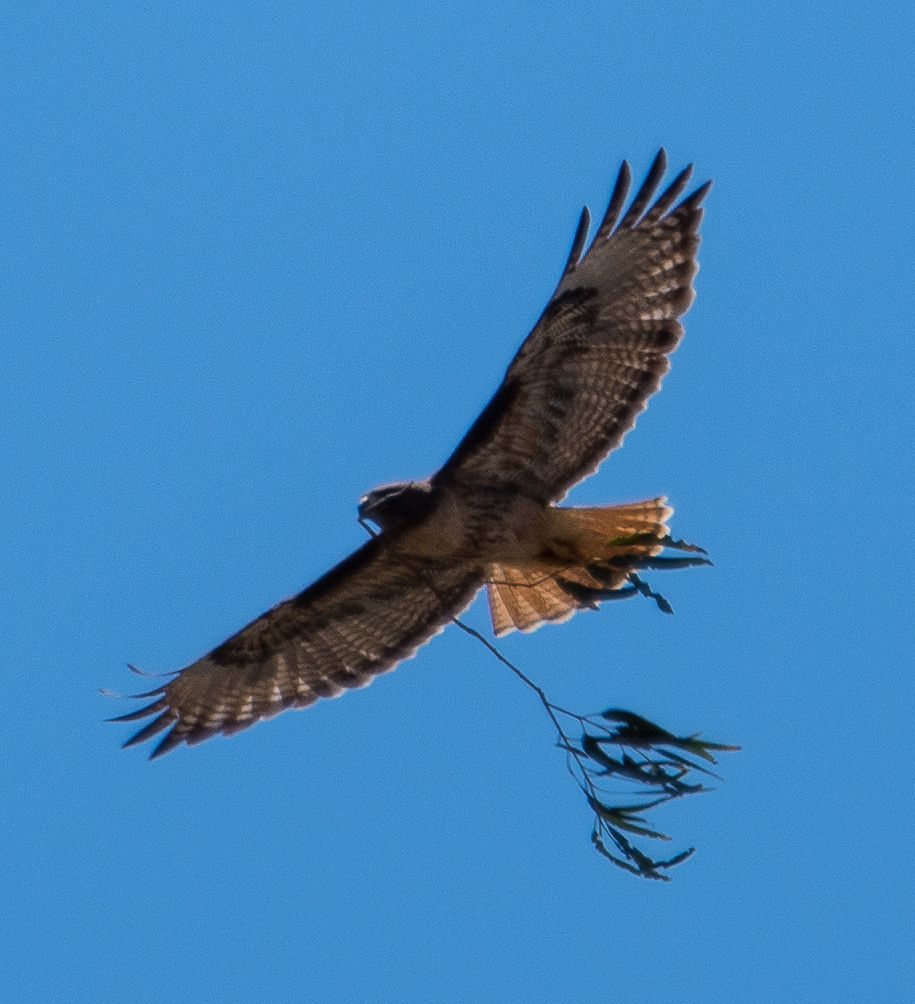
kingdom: Animalia
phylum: Chordata
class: Aves
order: Accipitriformes
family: Accipitridae
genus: Buteo
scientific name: Buteo jamaicensis
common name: Red-tailed hawk
